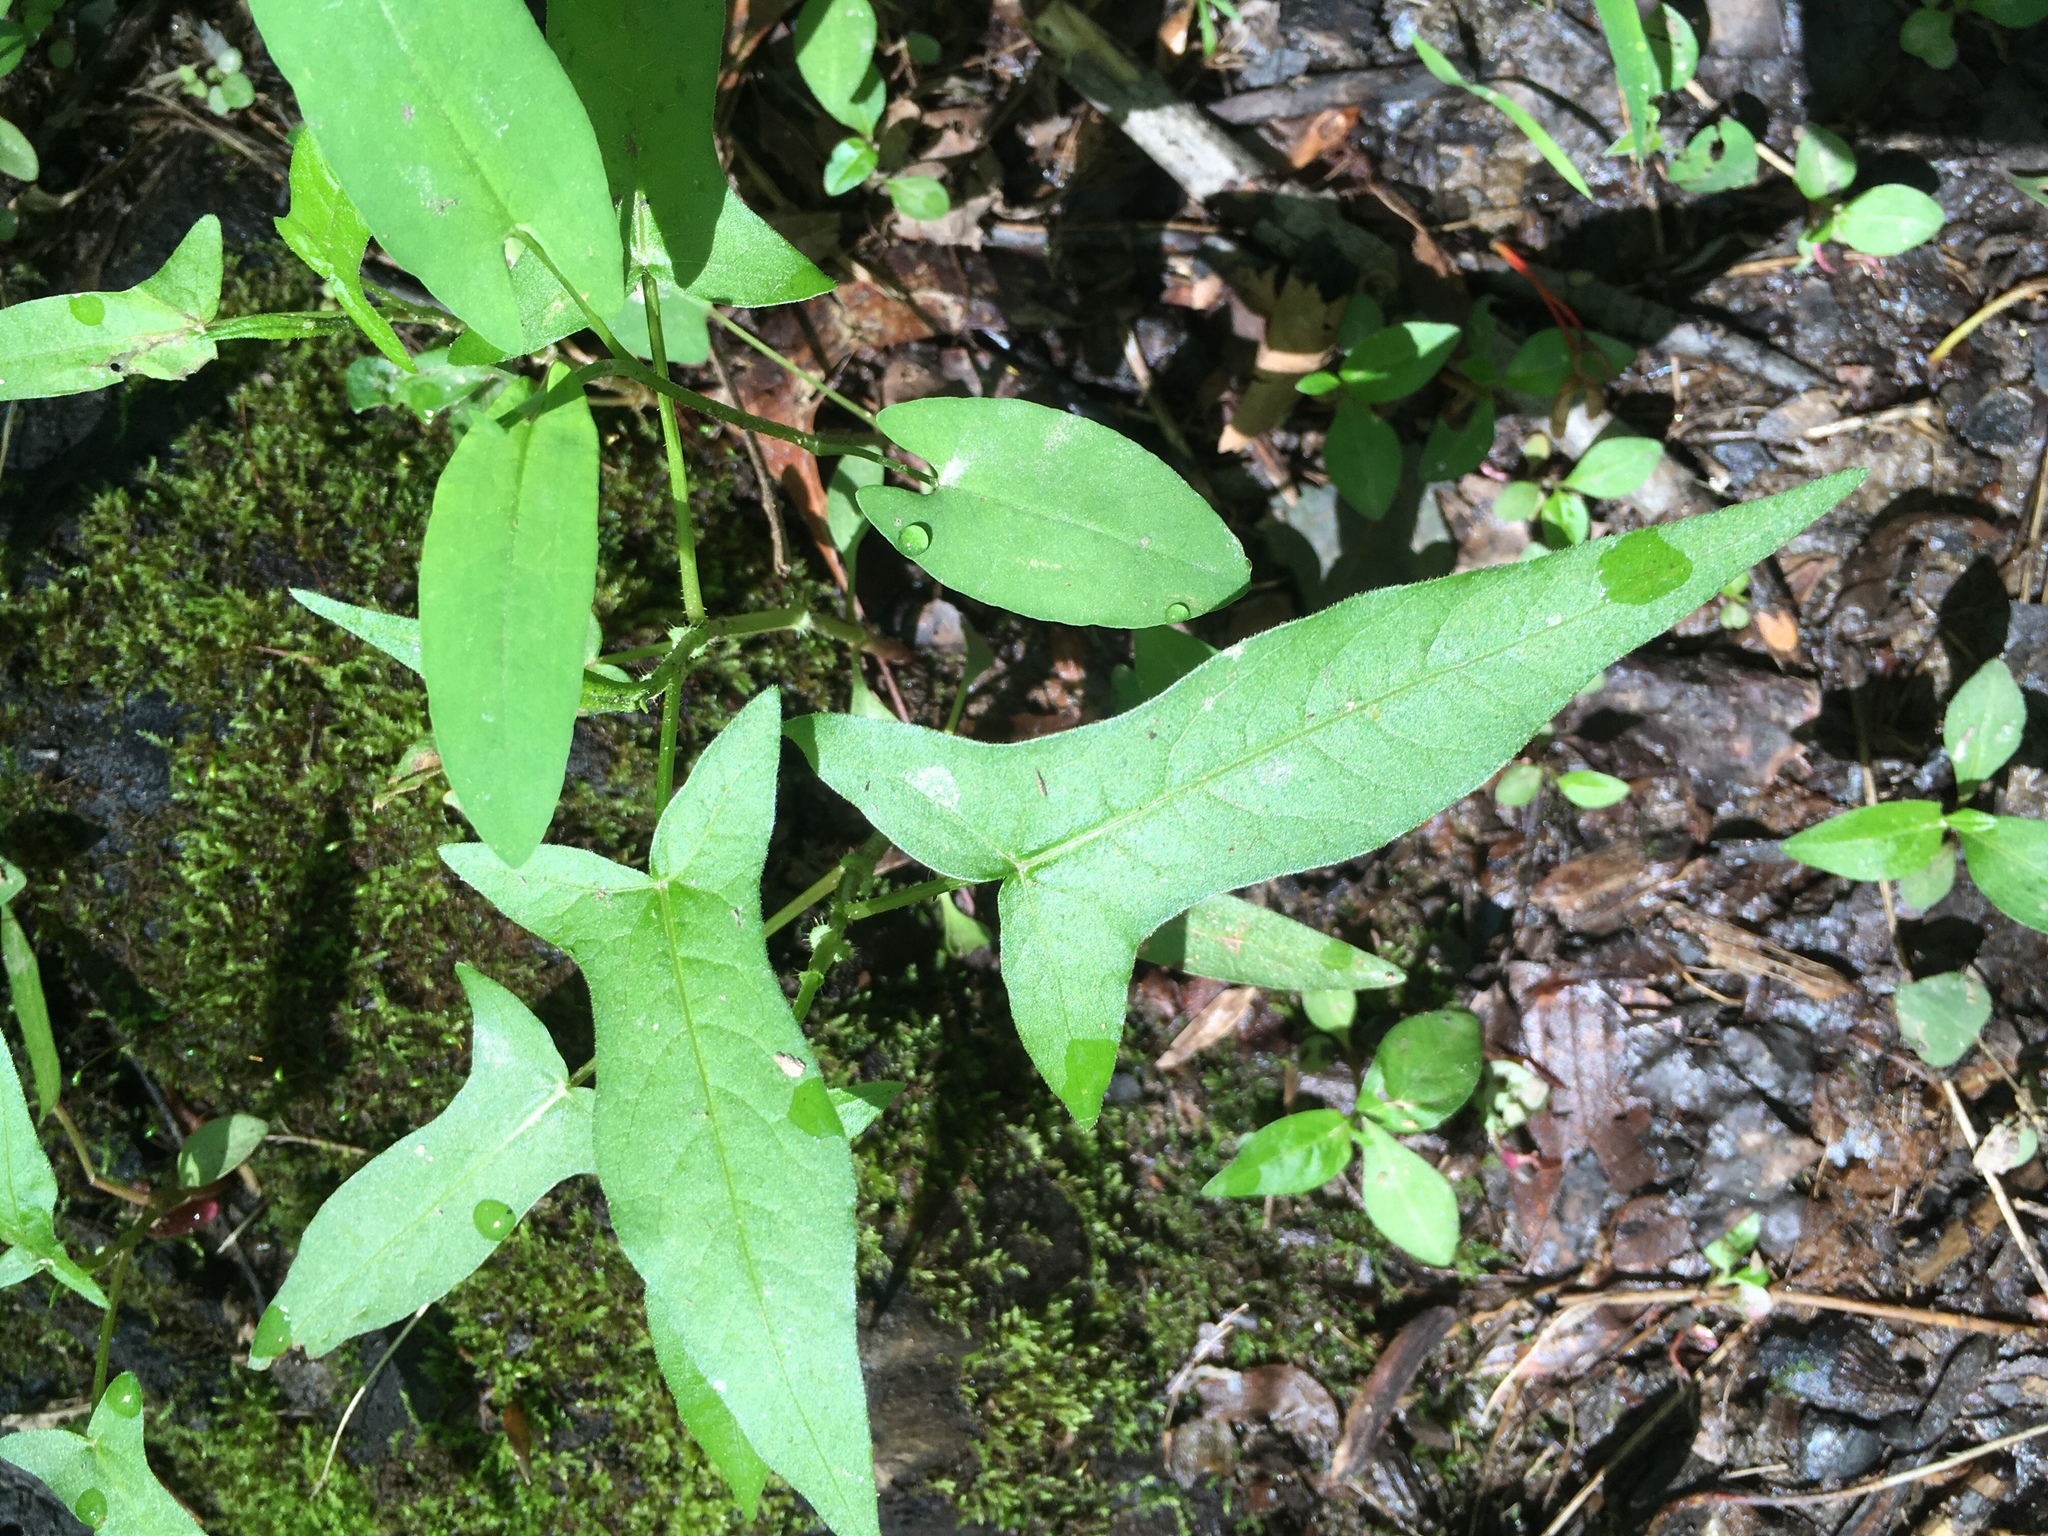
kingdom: Plantae
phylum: Tracheophyta
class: Magnoliopsida
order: Caryophyllales
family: Polygonaceae
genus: Persicaria
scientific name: Persicaria arifolia
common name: Halberd-leaved tear-thumb
